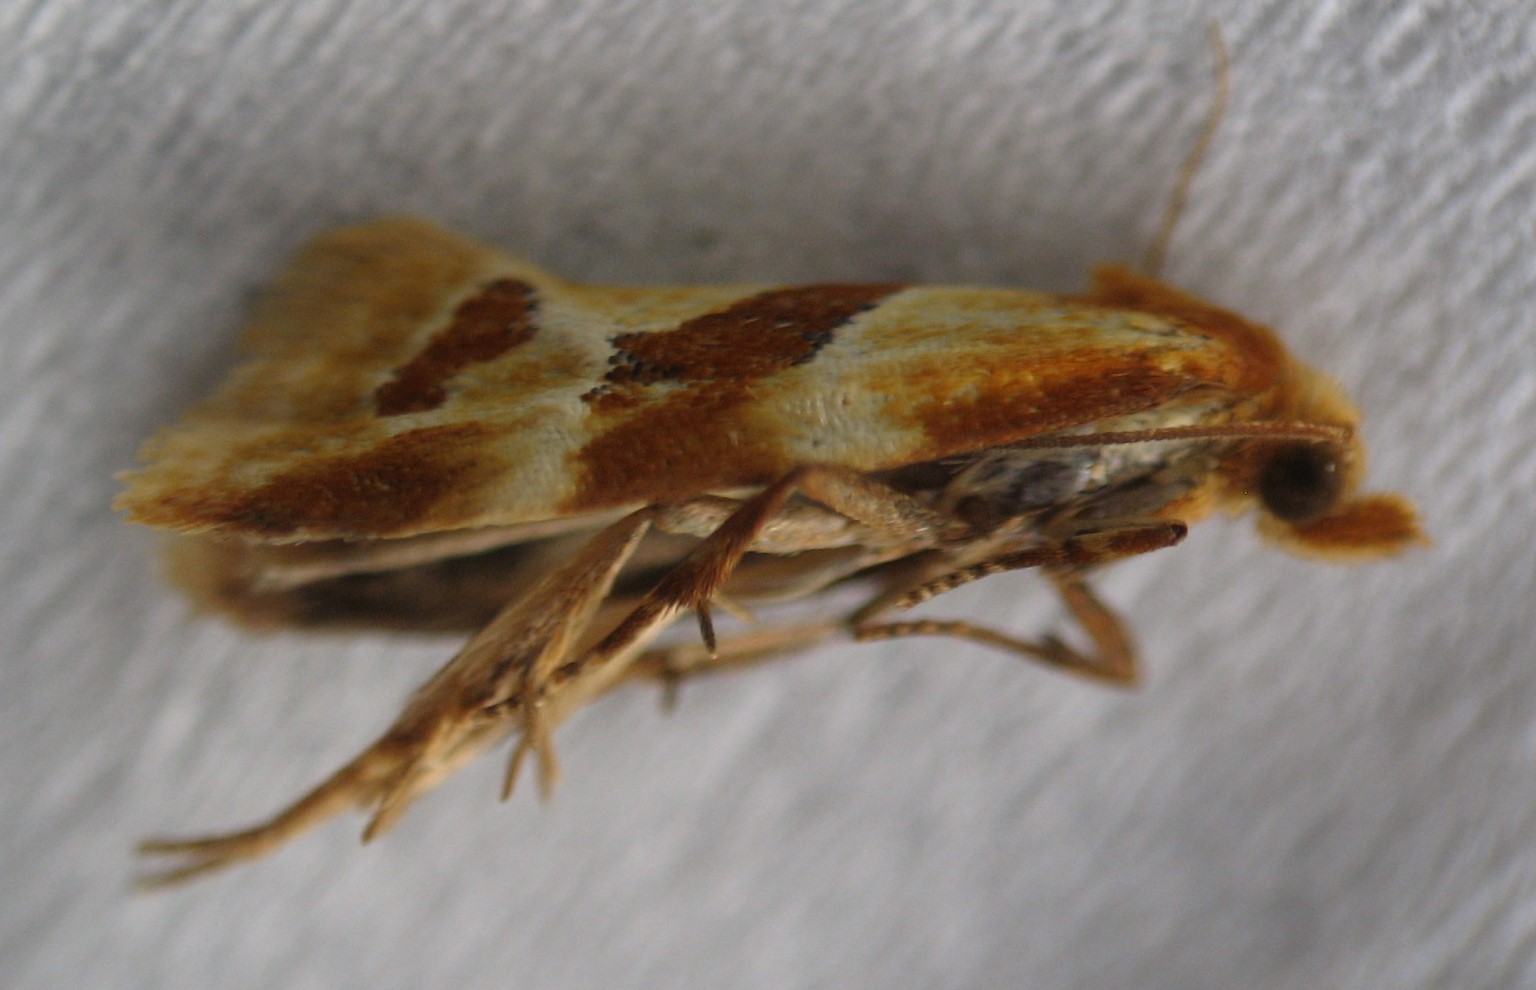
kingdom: Animalia
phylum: Arthropoda
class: Insecta
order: Lepidoptera
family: Tortricidae
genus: Aethes
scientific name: Aethes louisiana
